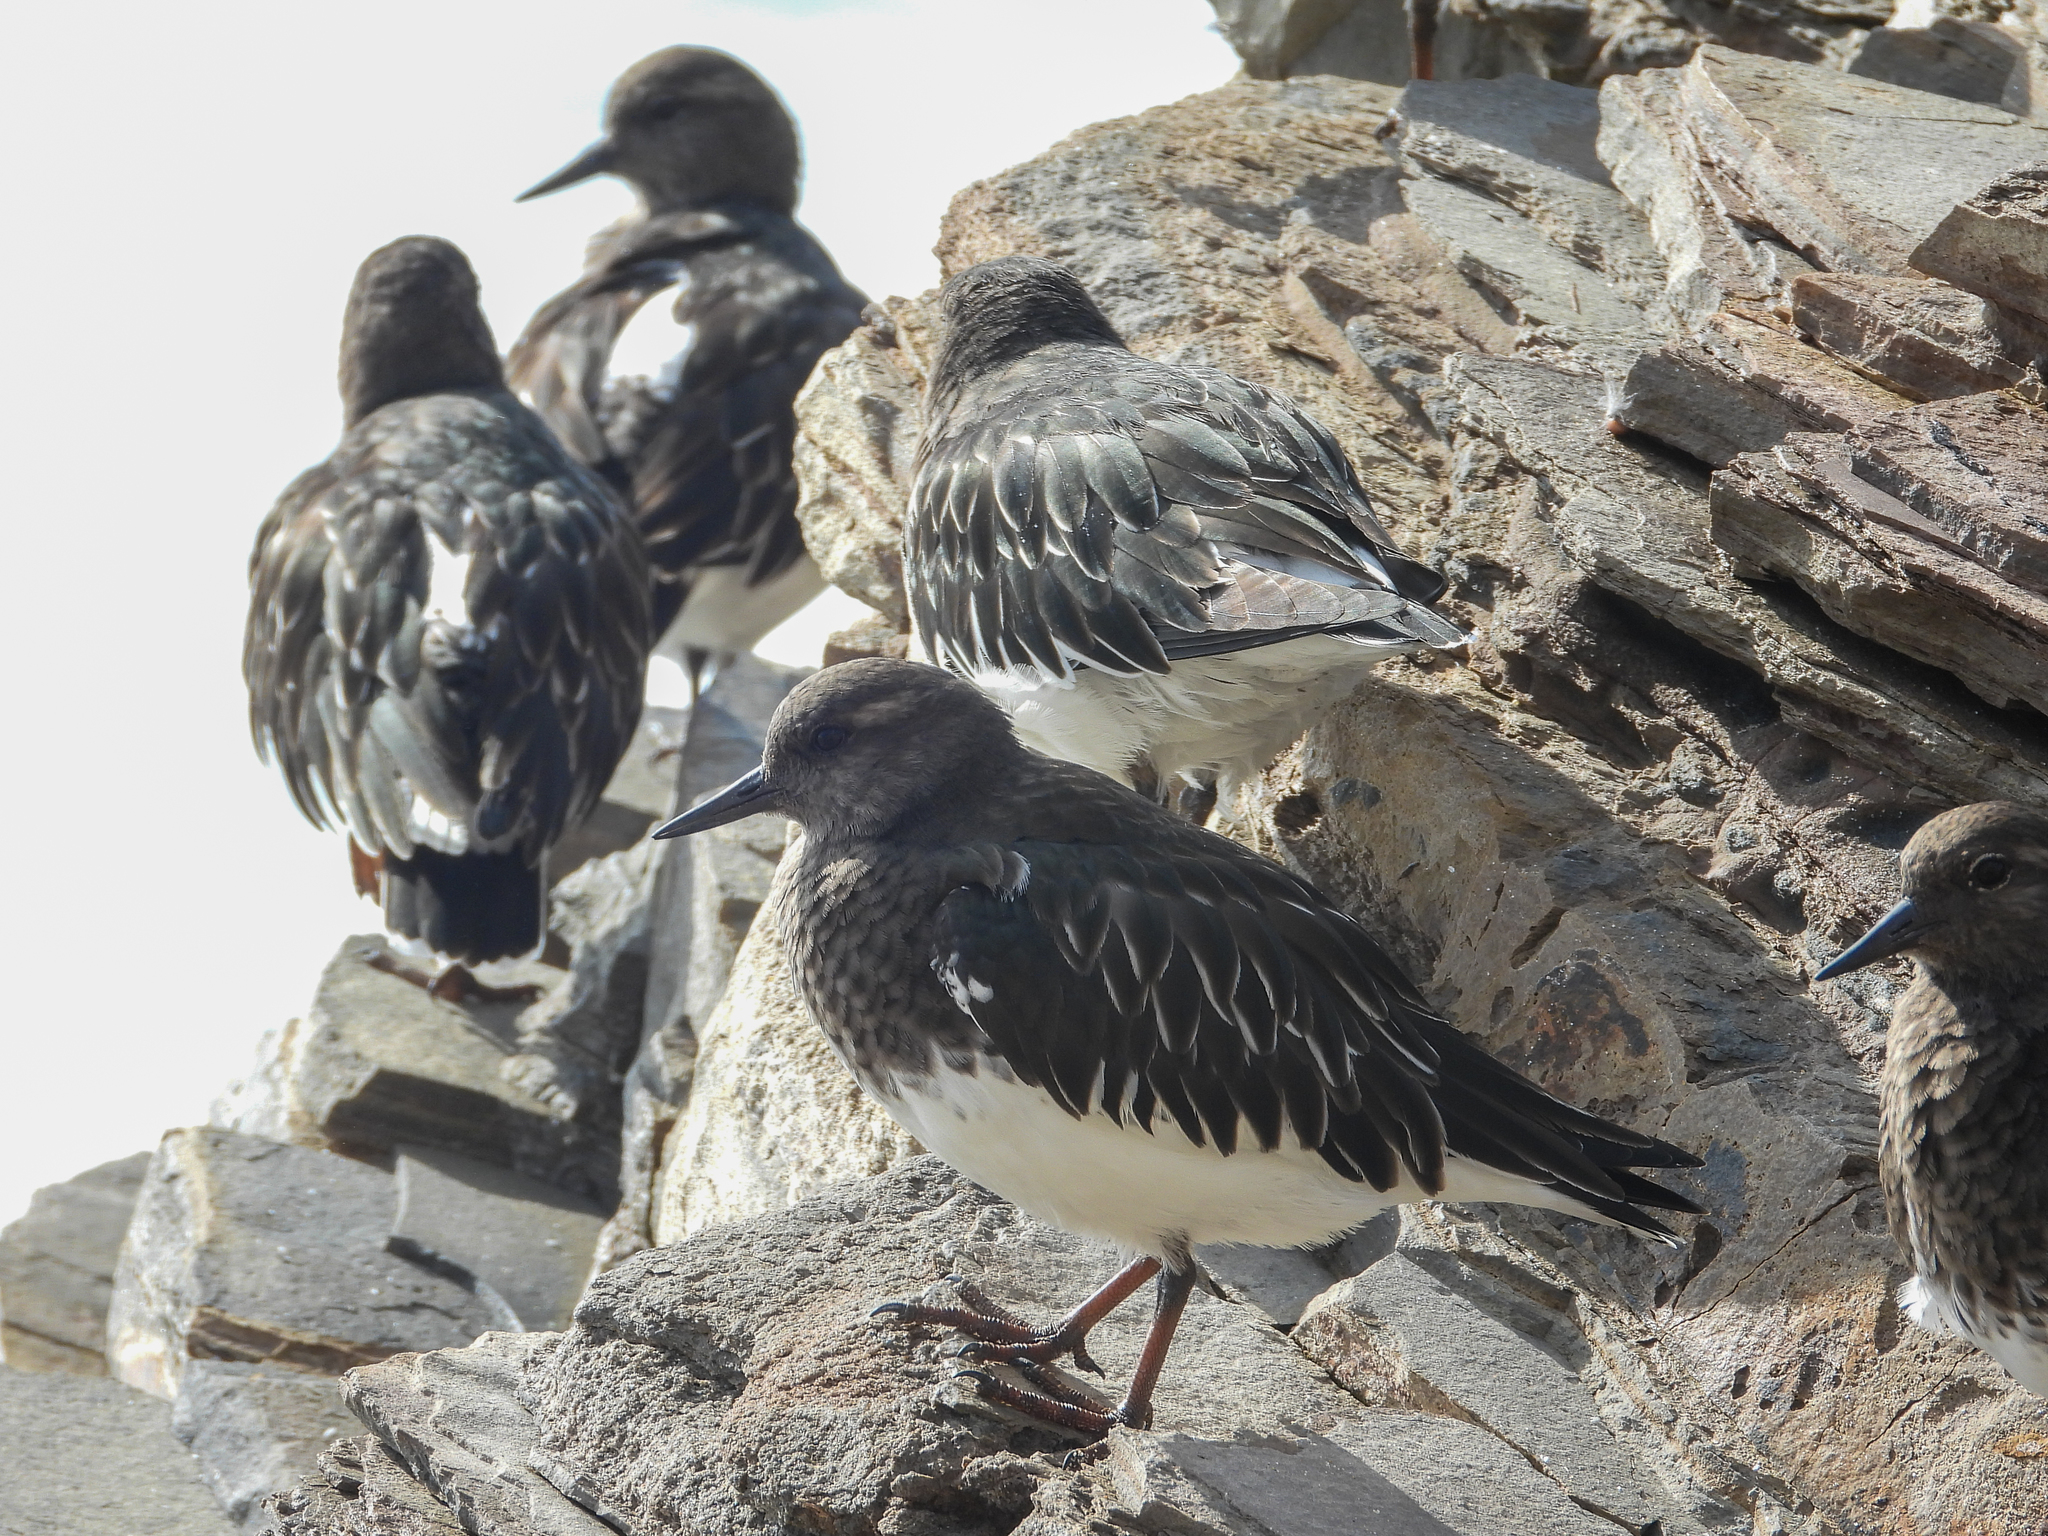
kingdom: Animalia
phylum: Chordata
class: Aves
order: Charadriiformes
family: Scolopacidae
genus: Arenaria
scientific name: Arenaria melanocephala
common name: Black turnstone
